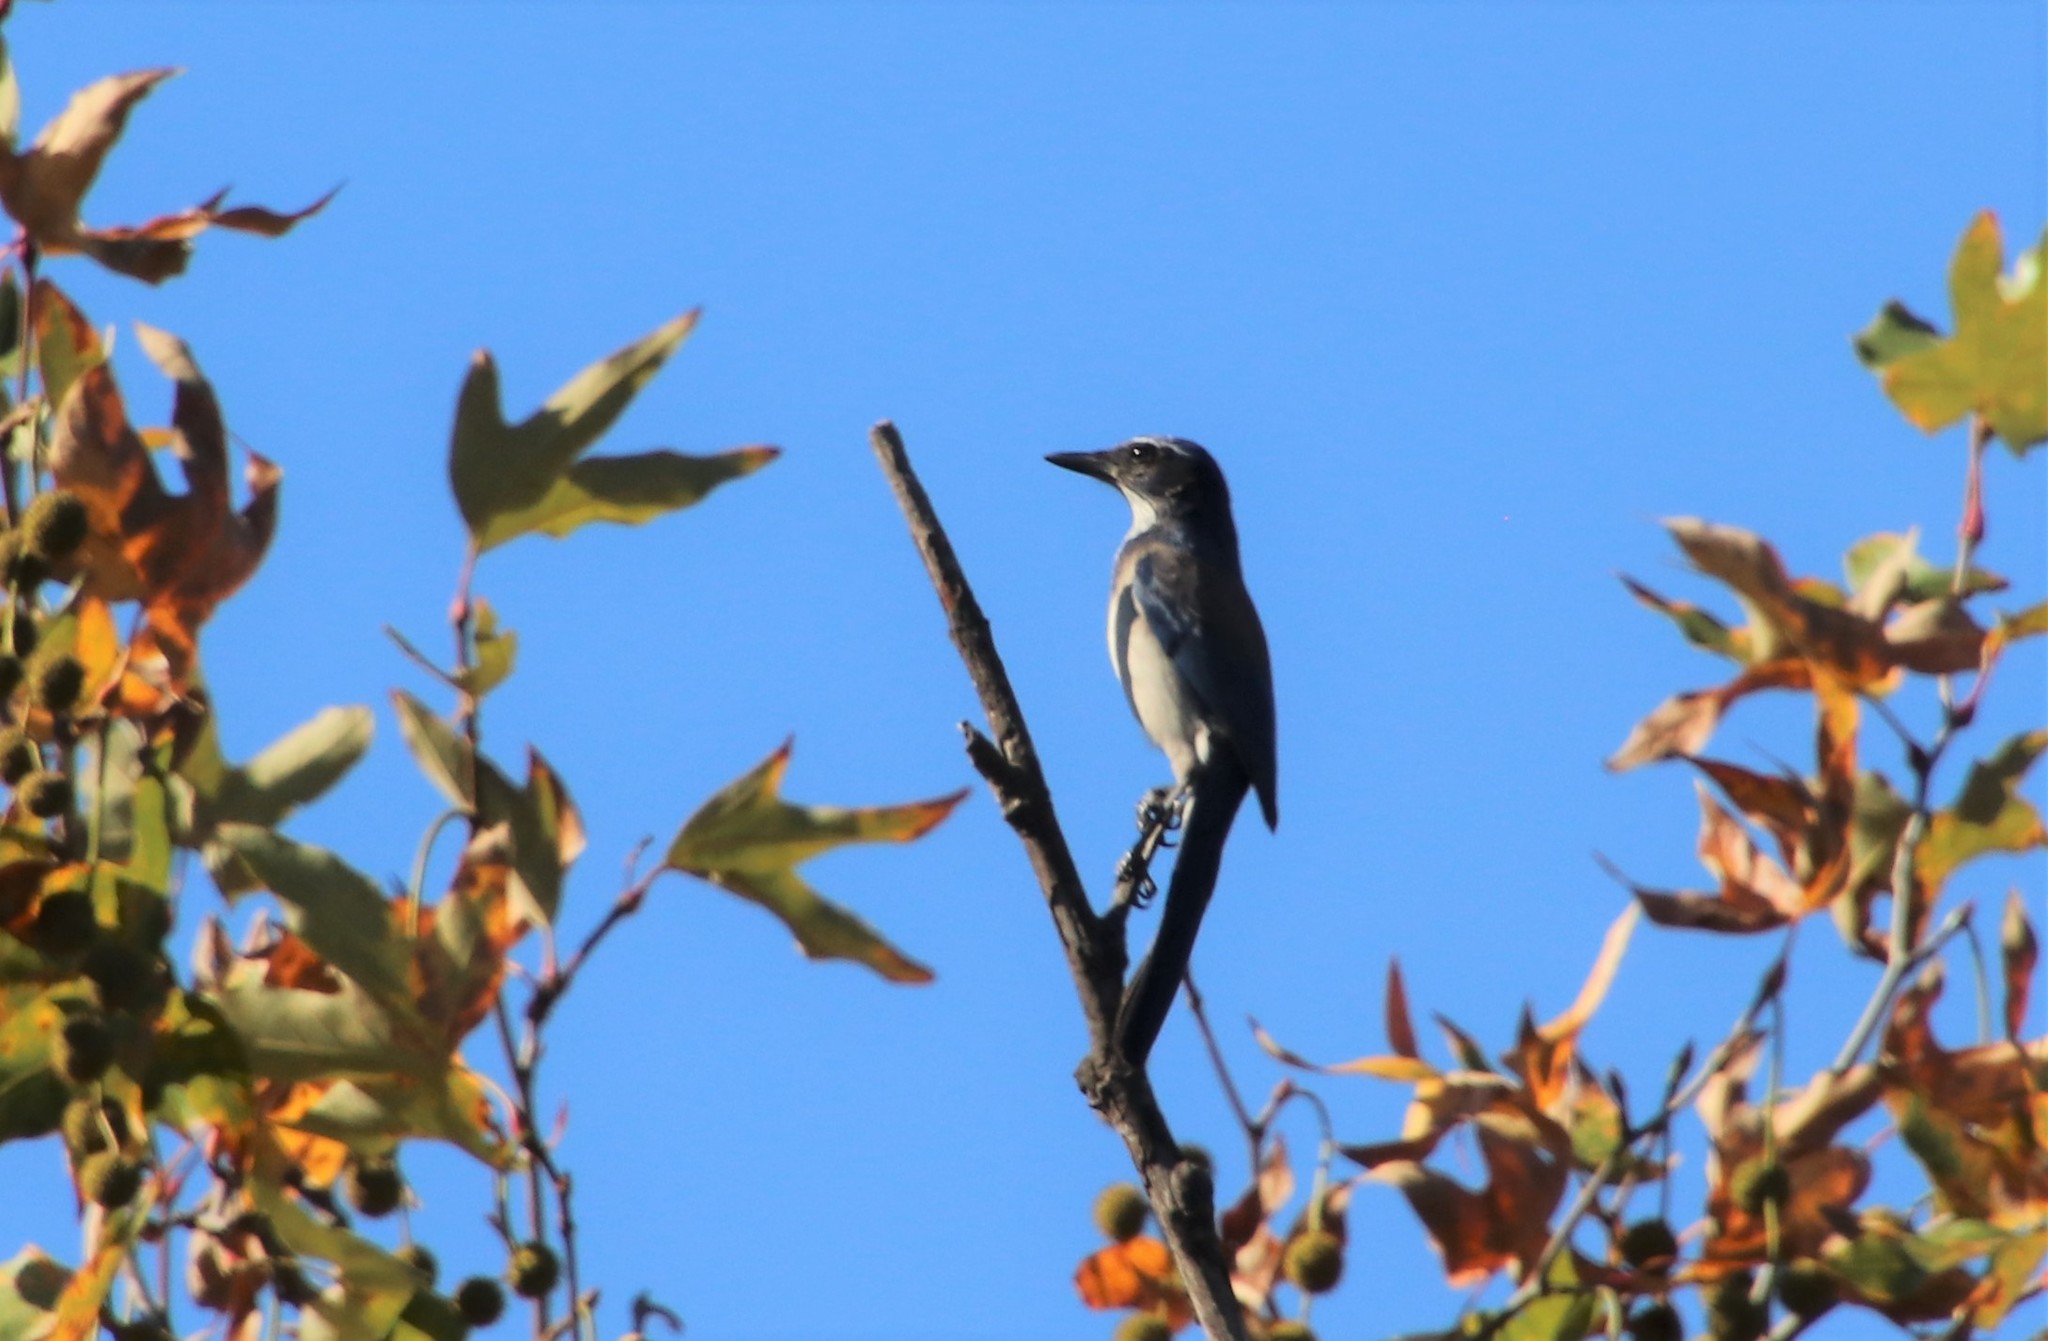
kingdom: Animalia
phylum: Chordata
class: Aves
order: Passeriformes
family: Corvidae
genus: Aphelocoma
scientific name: Aphelocoma californica
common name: California scrub-jay
